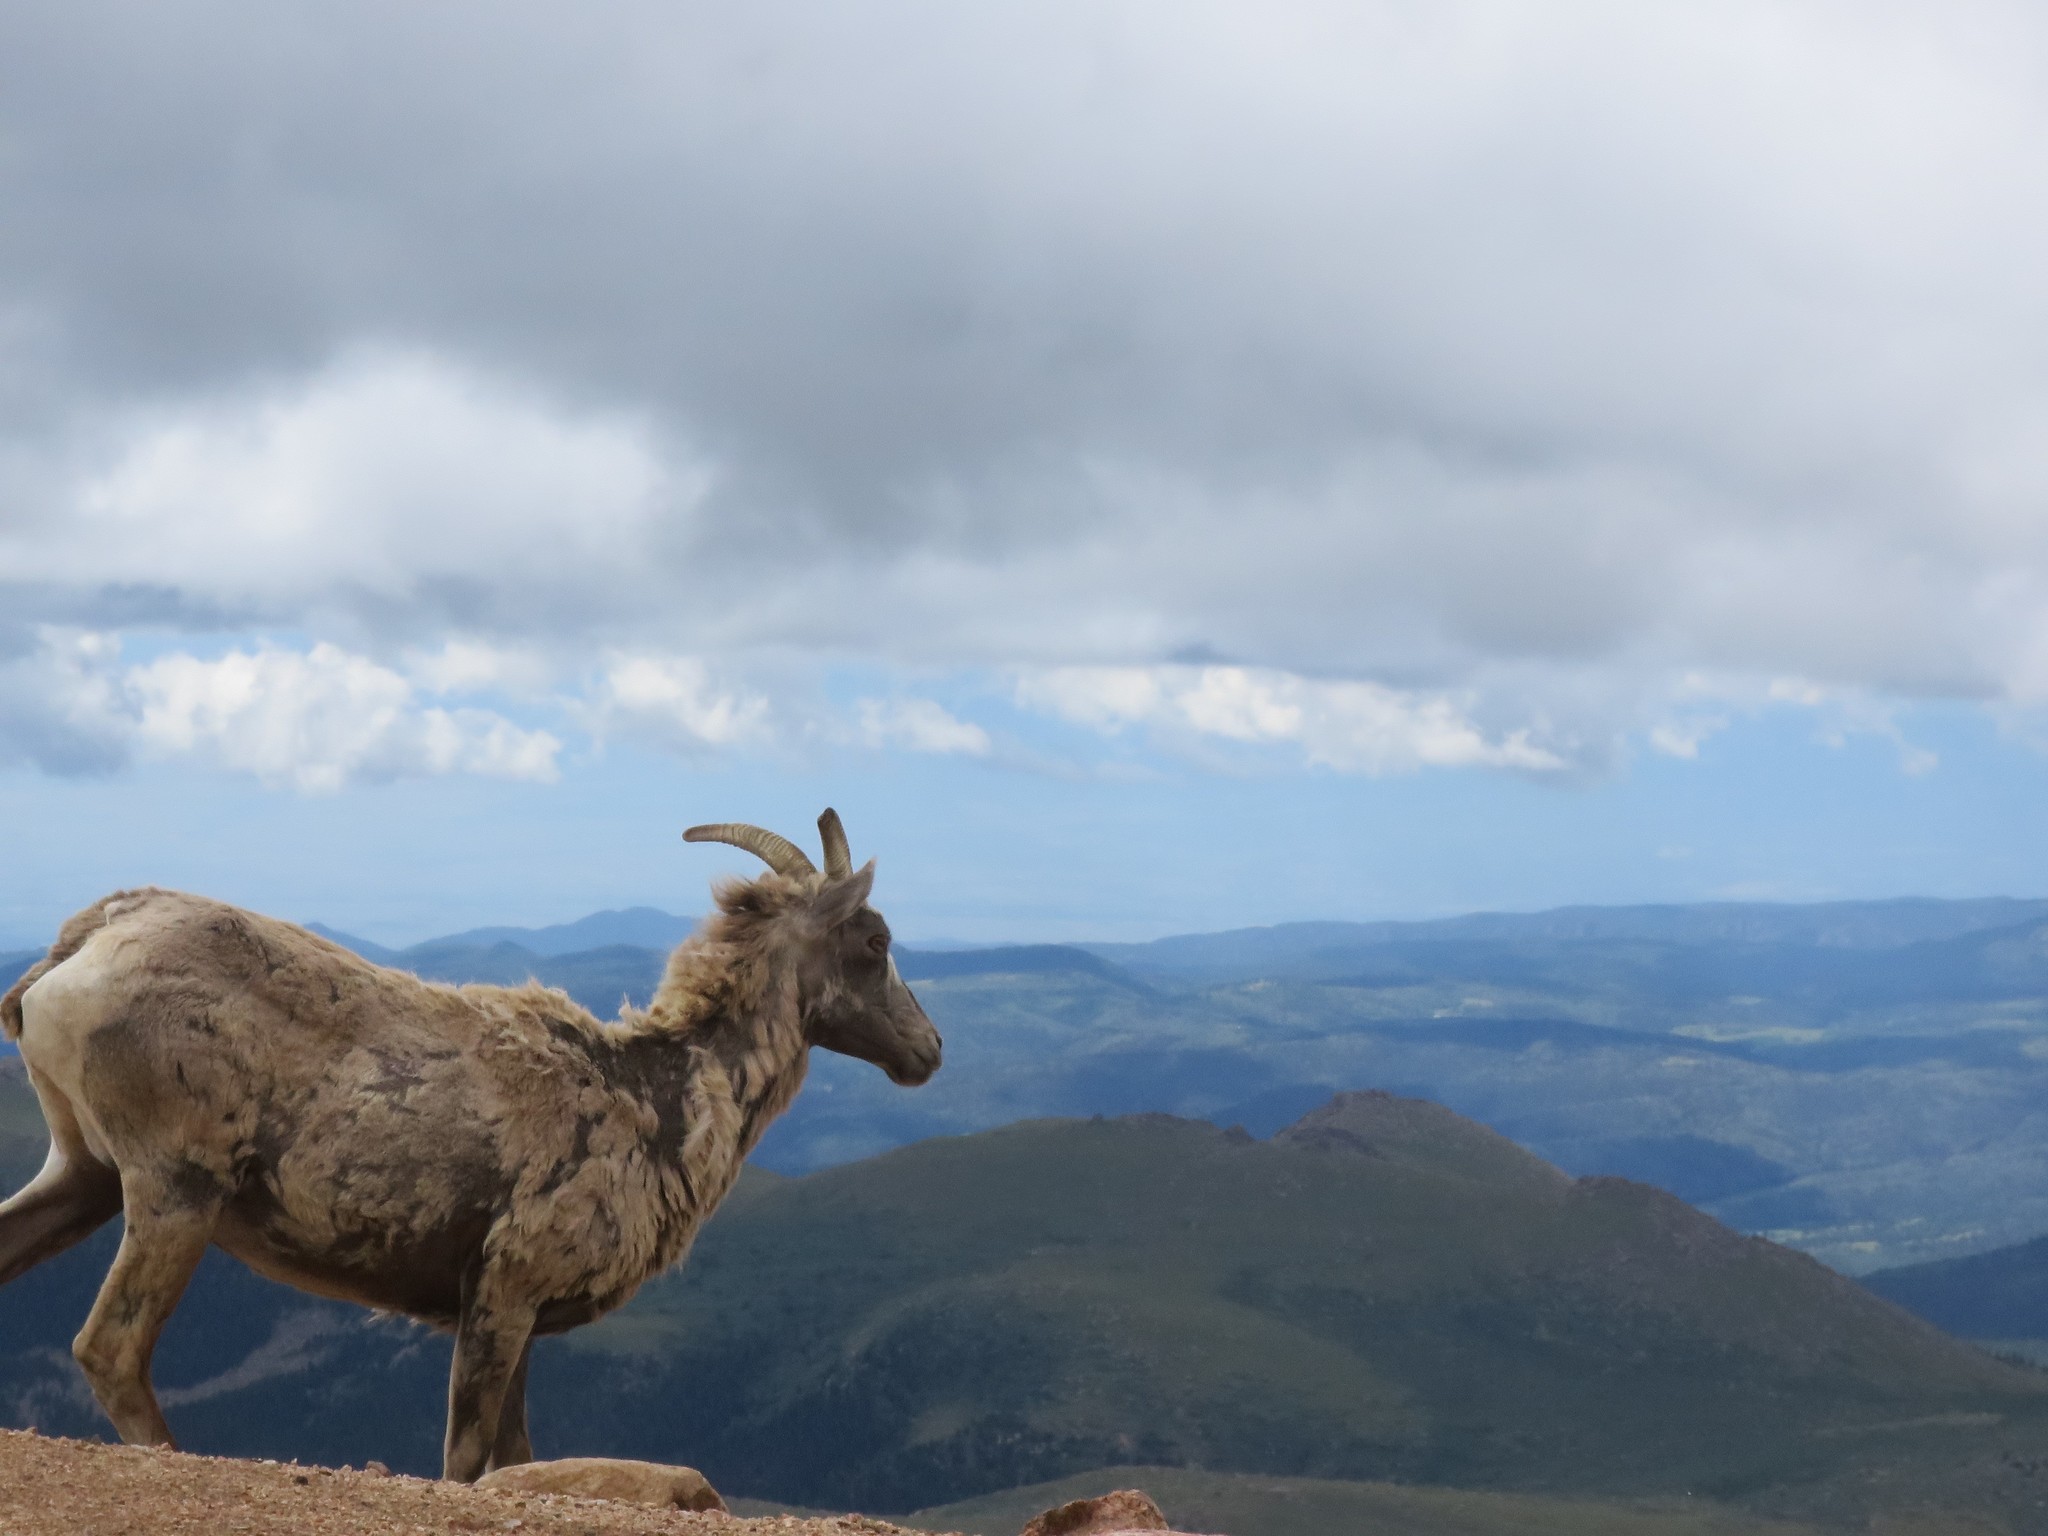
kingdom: Animalia
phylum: Chordata
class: Mammalia
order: Artiodactyla
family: Bovidae
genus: Ovis
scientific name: Ovis canadensis
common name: Bighorn sheep
